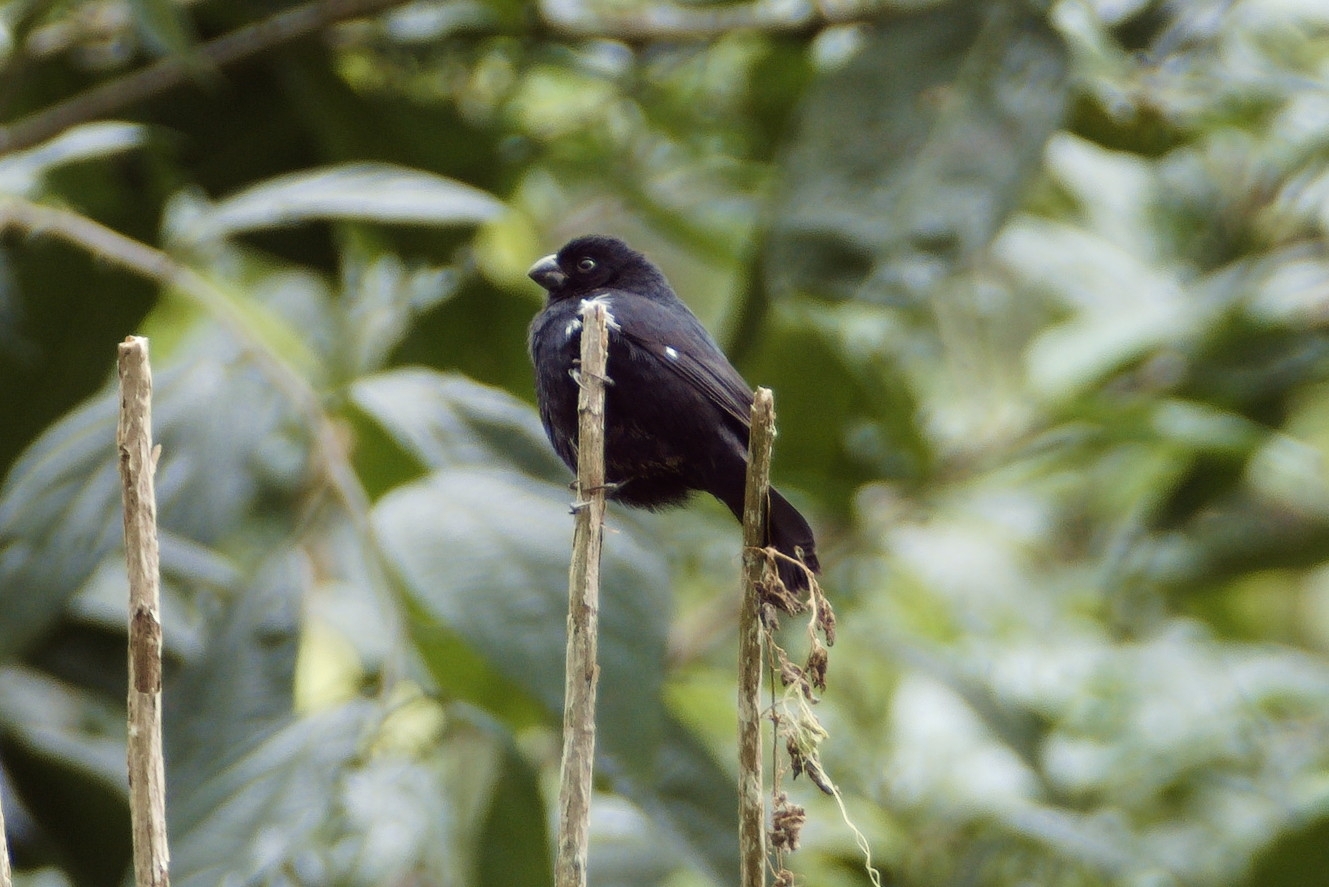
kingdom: Animalia
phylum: Chordata
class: Aves
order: Passeriformes
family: Thraupidae
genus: Sporophila
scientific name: Sporophila corvina
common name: Variable seedeater
